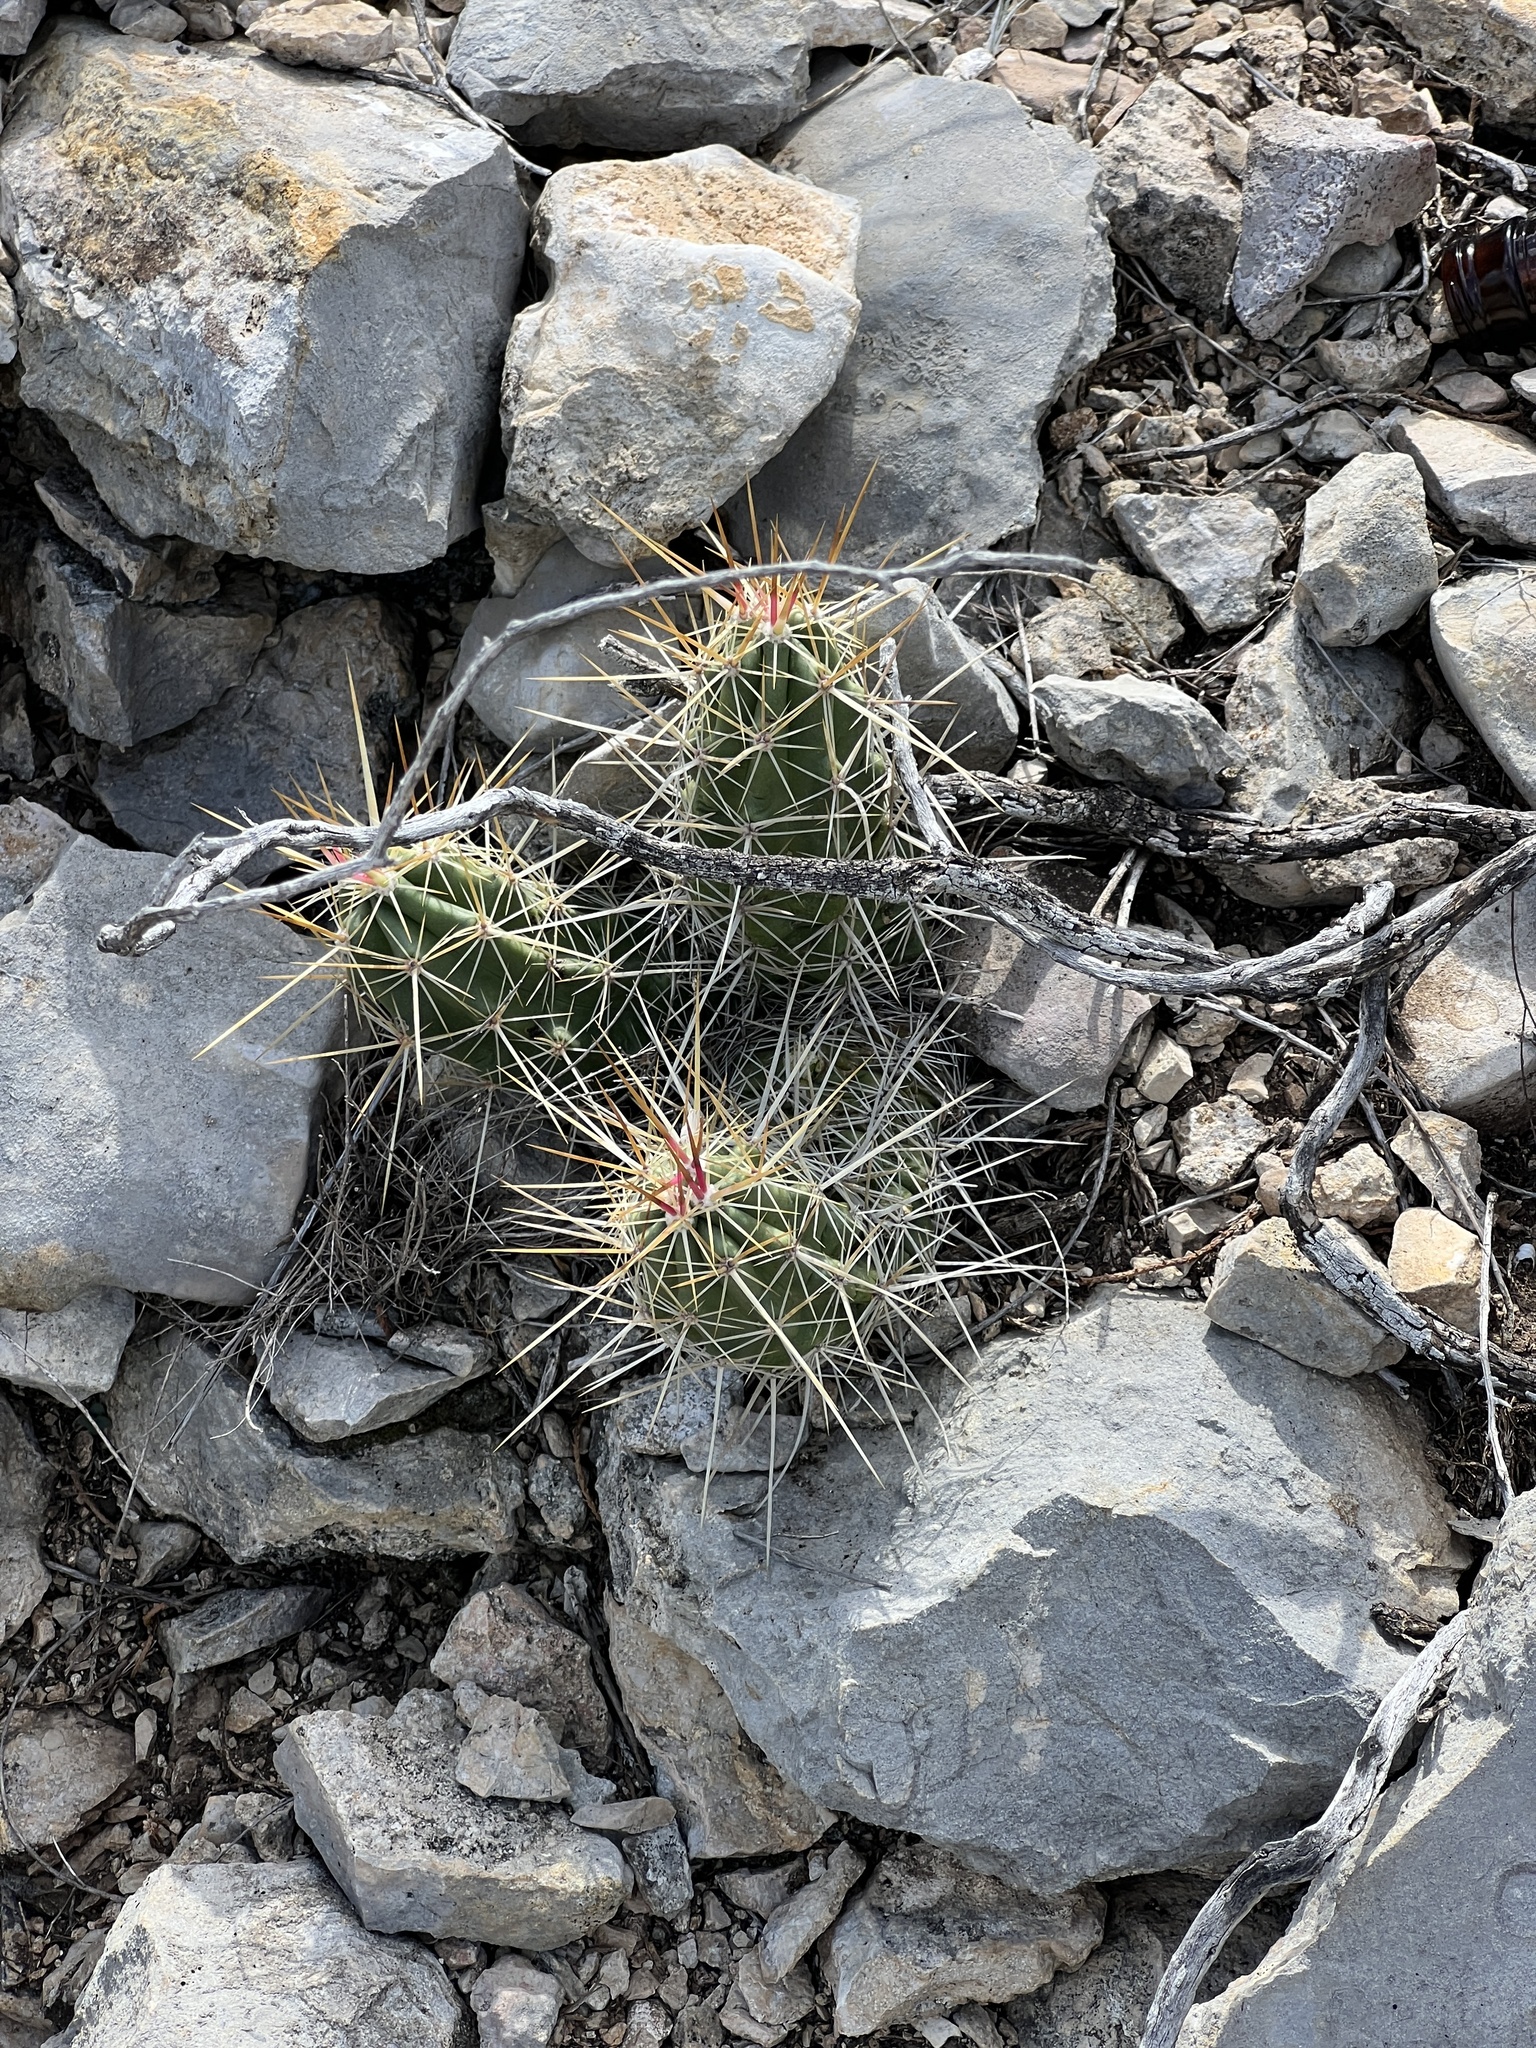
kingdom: Plantae
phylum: Tracheophyta
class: Magnoliopsida
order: Caryophyllales
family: Cactaceae
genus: Echinocereus
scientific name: Echinocereus enneacanthus
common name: Pitaya
